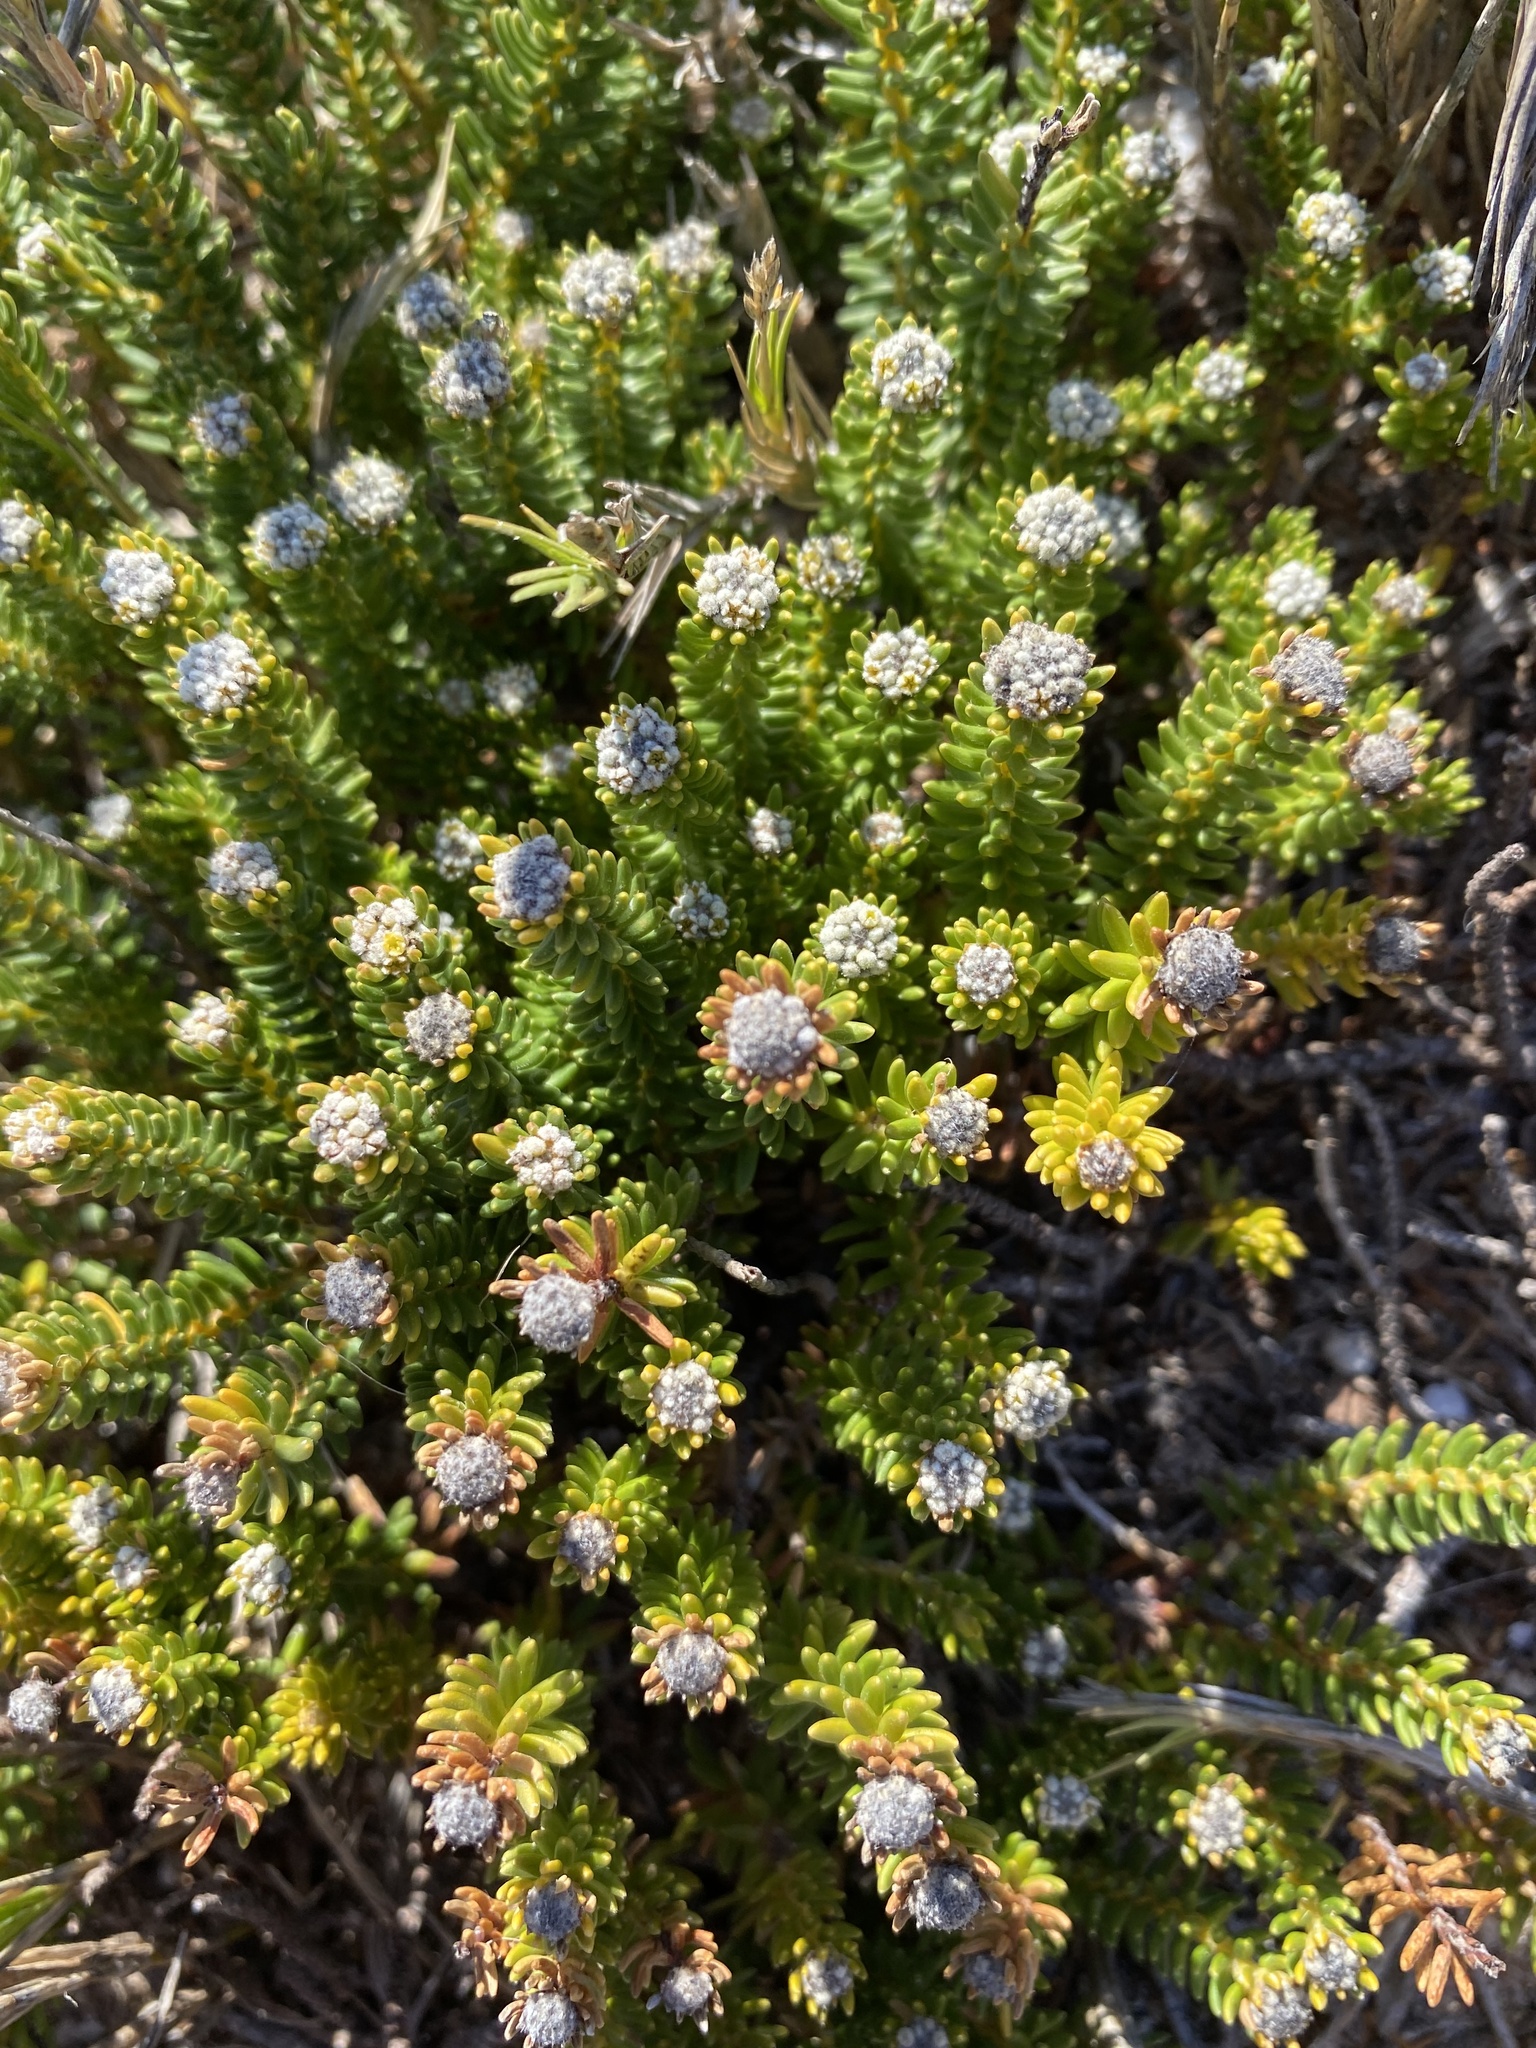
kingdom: Plantae
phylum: Tracheophyta
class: Magnoliopsida
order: Rosales
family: Rhamnaceae
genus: Phylica
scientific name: Phylica ericoides
